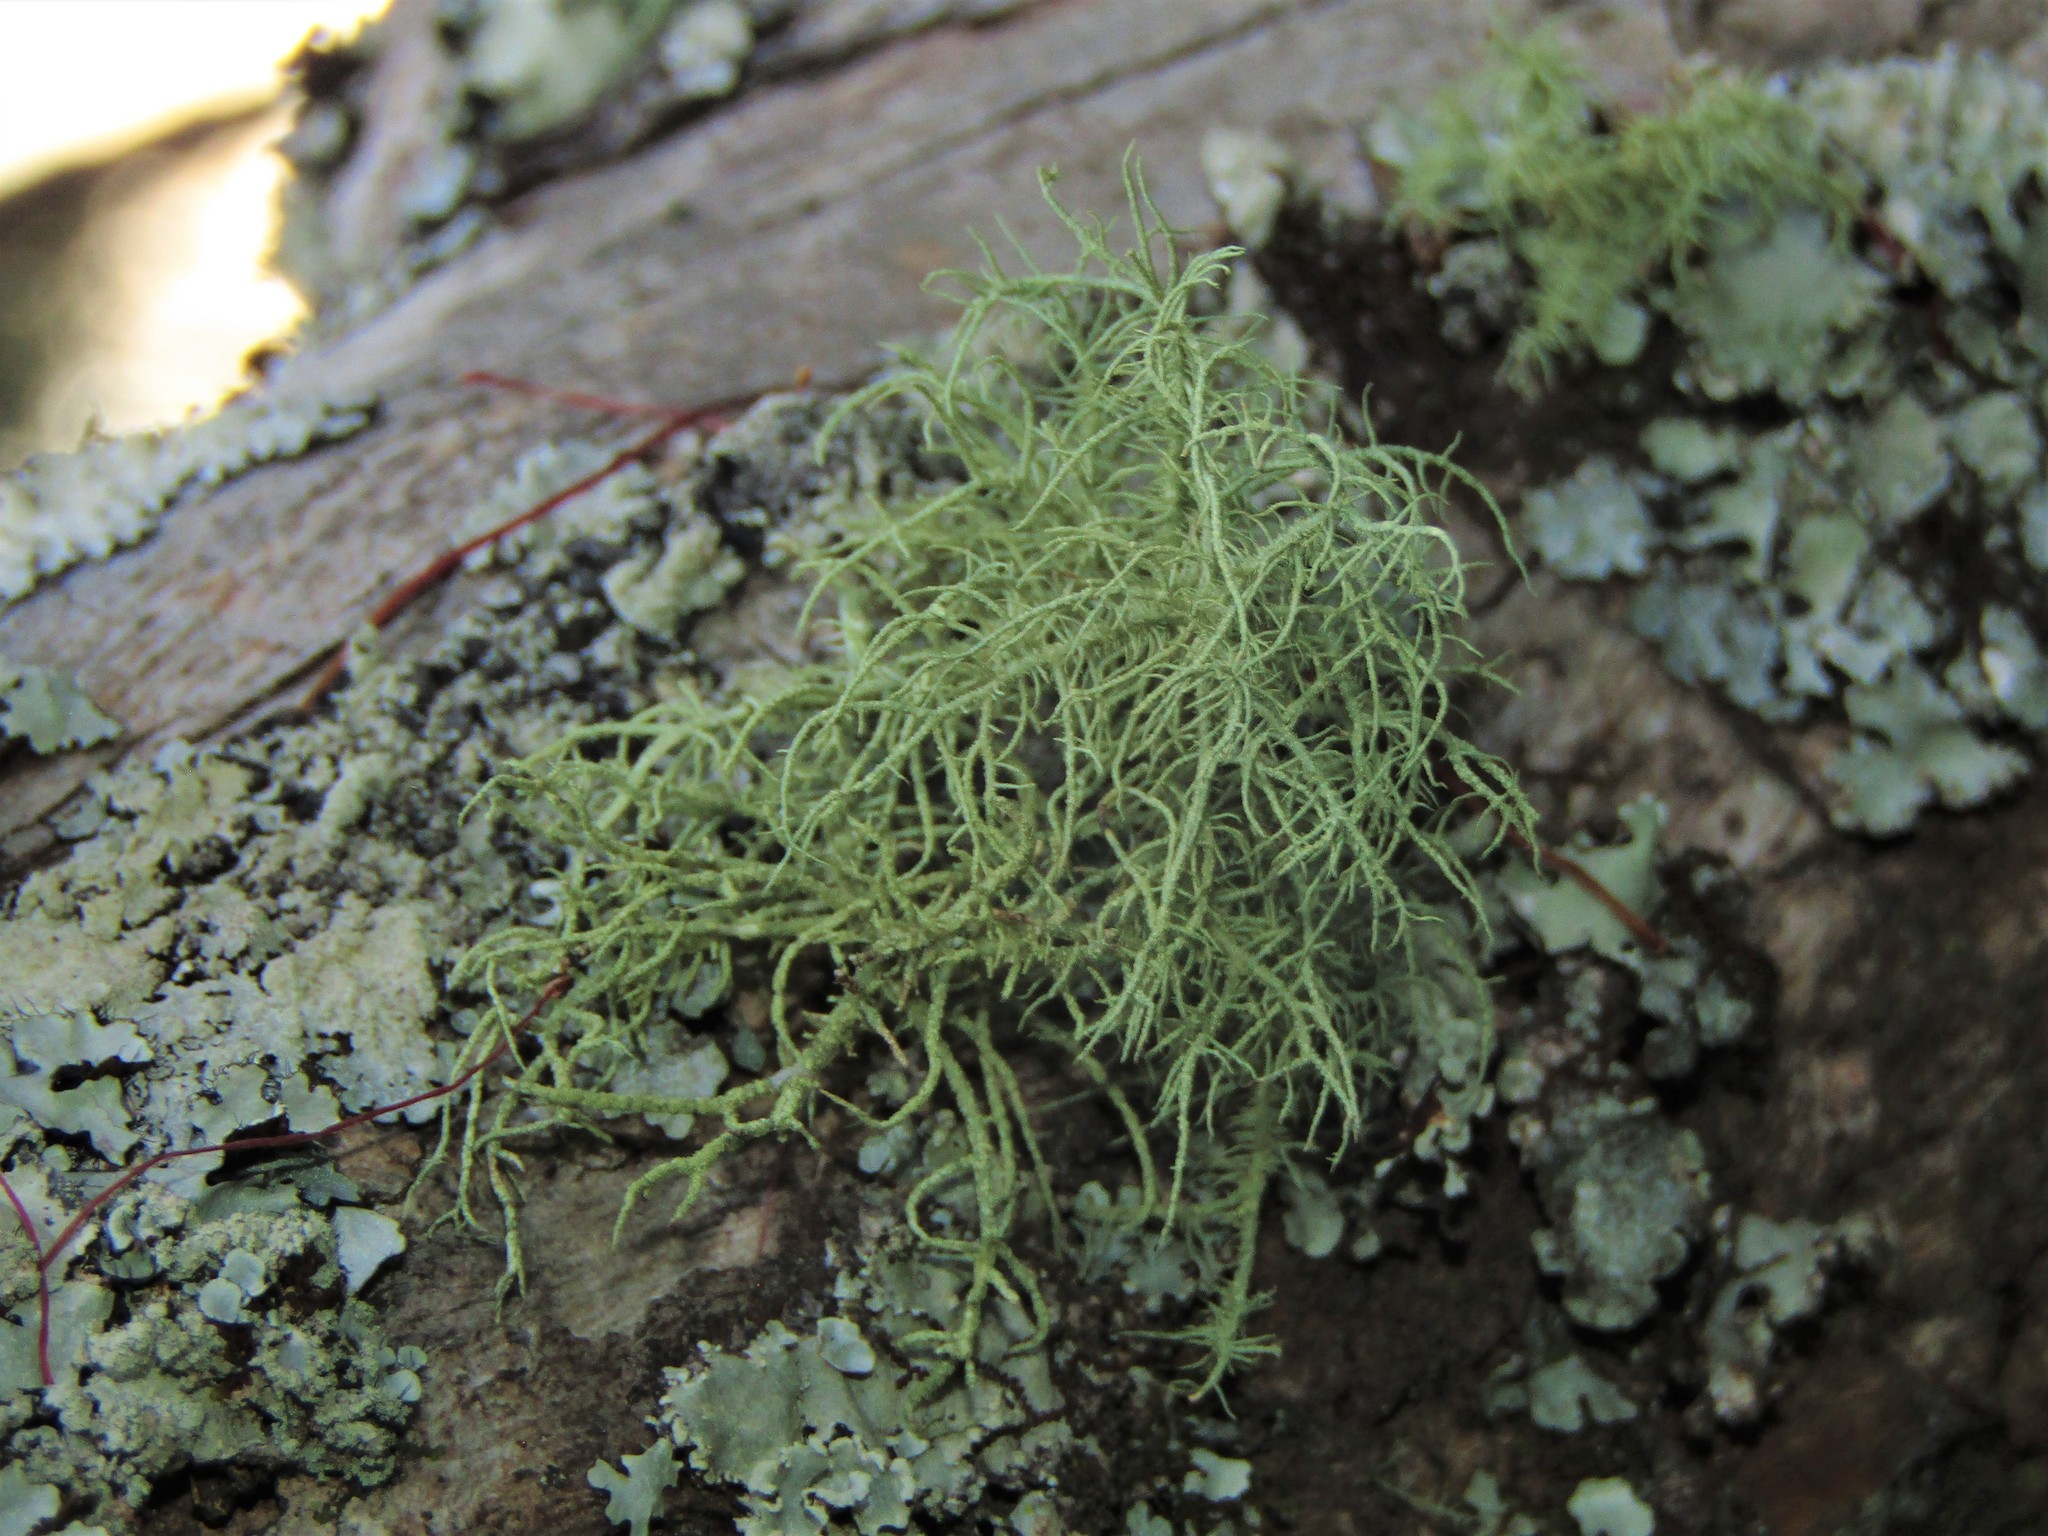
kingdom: Fungi
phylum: Ascomycota
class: Lecanoromycetes
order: Lecanorales
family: Parmeliaceae
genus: Usnea
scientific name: Usnea
